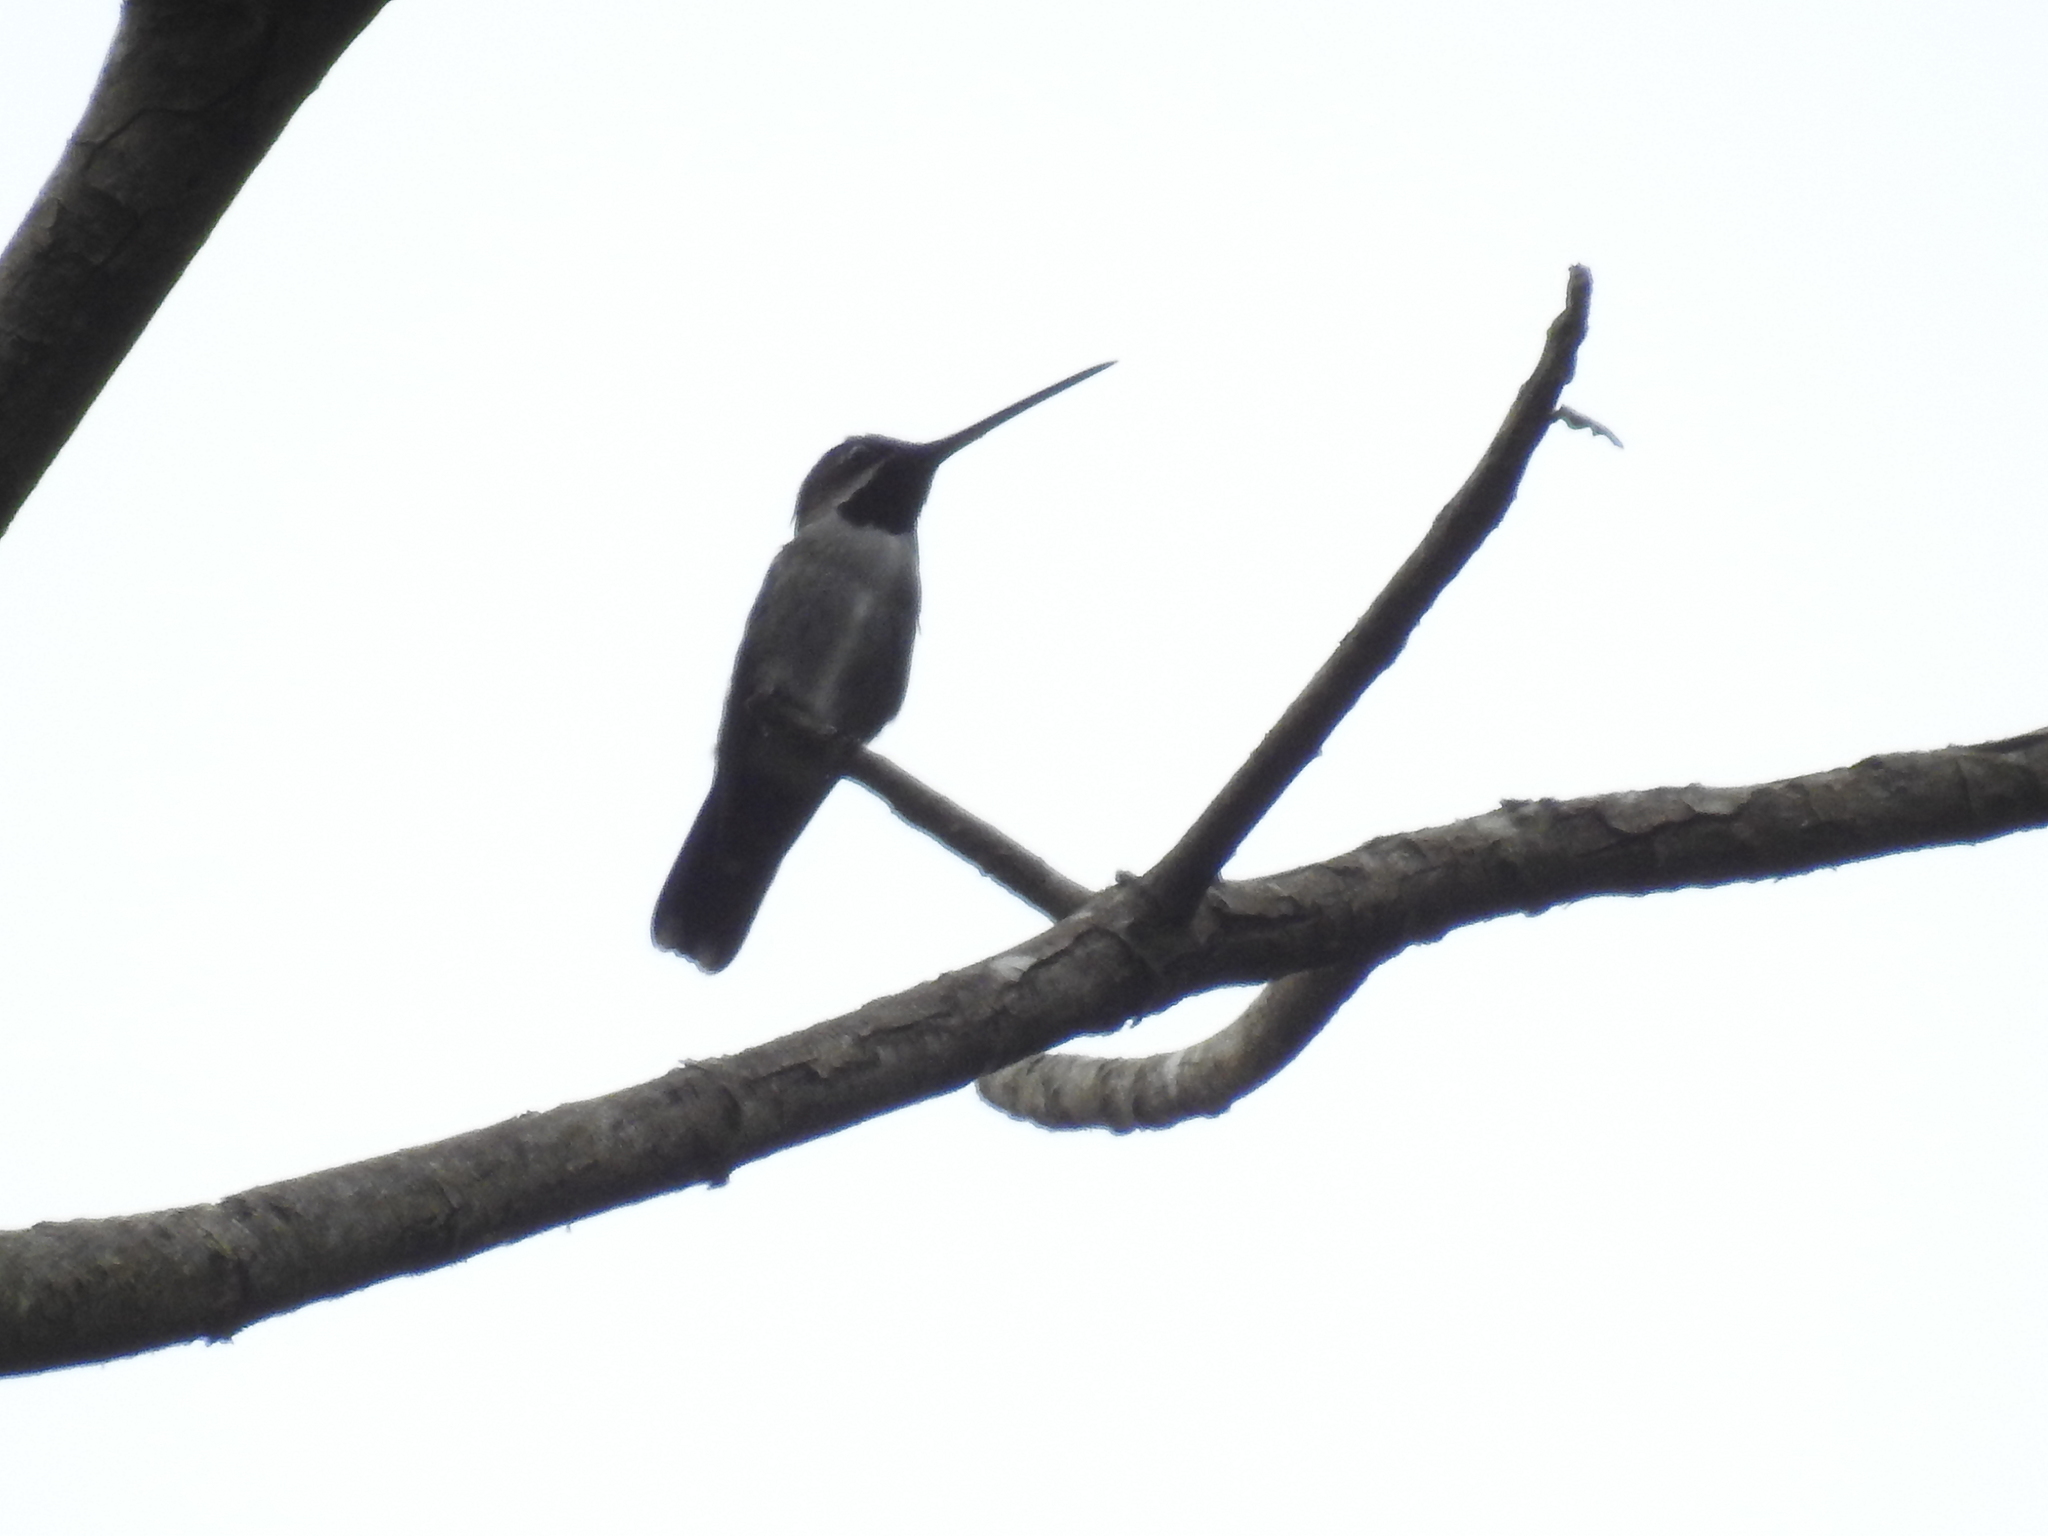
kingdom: Animalia
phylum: Chordata
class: Aves
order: Apodiformes
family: Trochilidae
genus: Heliomaster
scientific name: Heliomaster longirostris
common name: Long-billed starthroat
